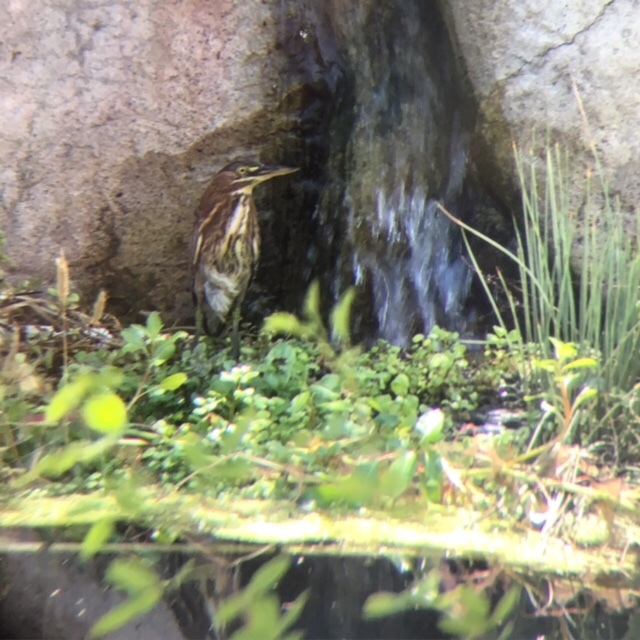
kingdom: Animalia
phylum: Chordata
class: Aves
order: Pelecaniformes
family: Ardeidae
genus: Butorides
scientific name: Butorides virescens
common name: Green heron
